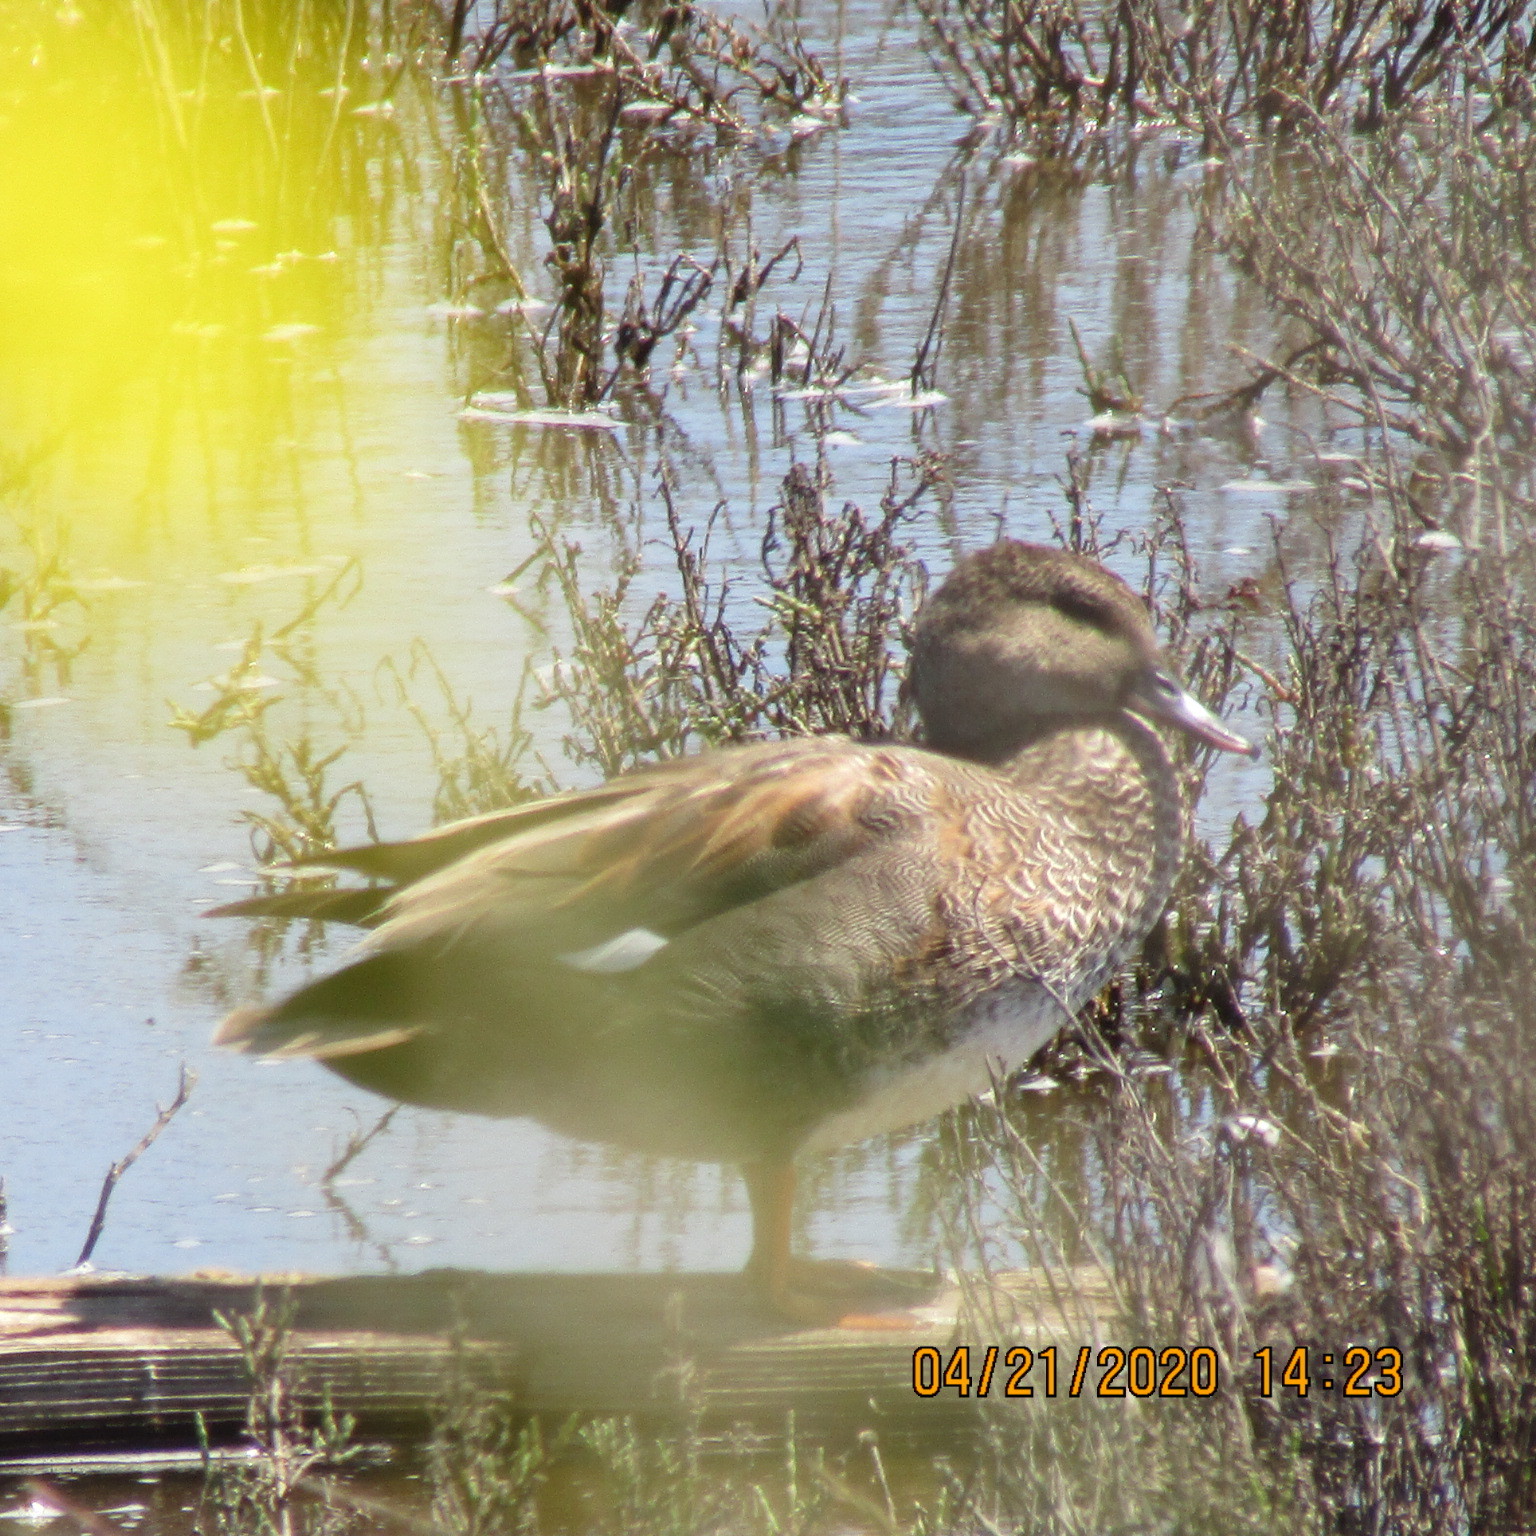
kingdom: Animalia
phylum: Chordata
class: Aves
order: Anseriformes
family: Anatidae
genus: Mareca
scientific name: Mareca strepera
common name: Gadwall
